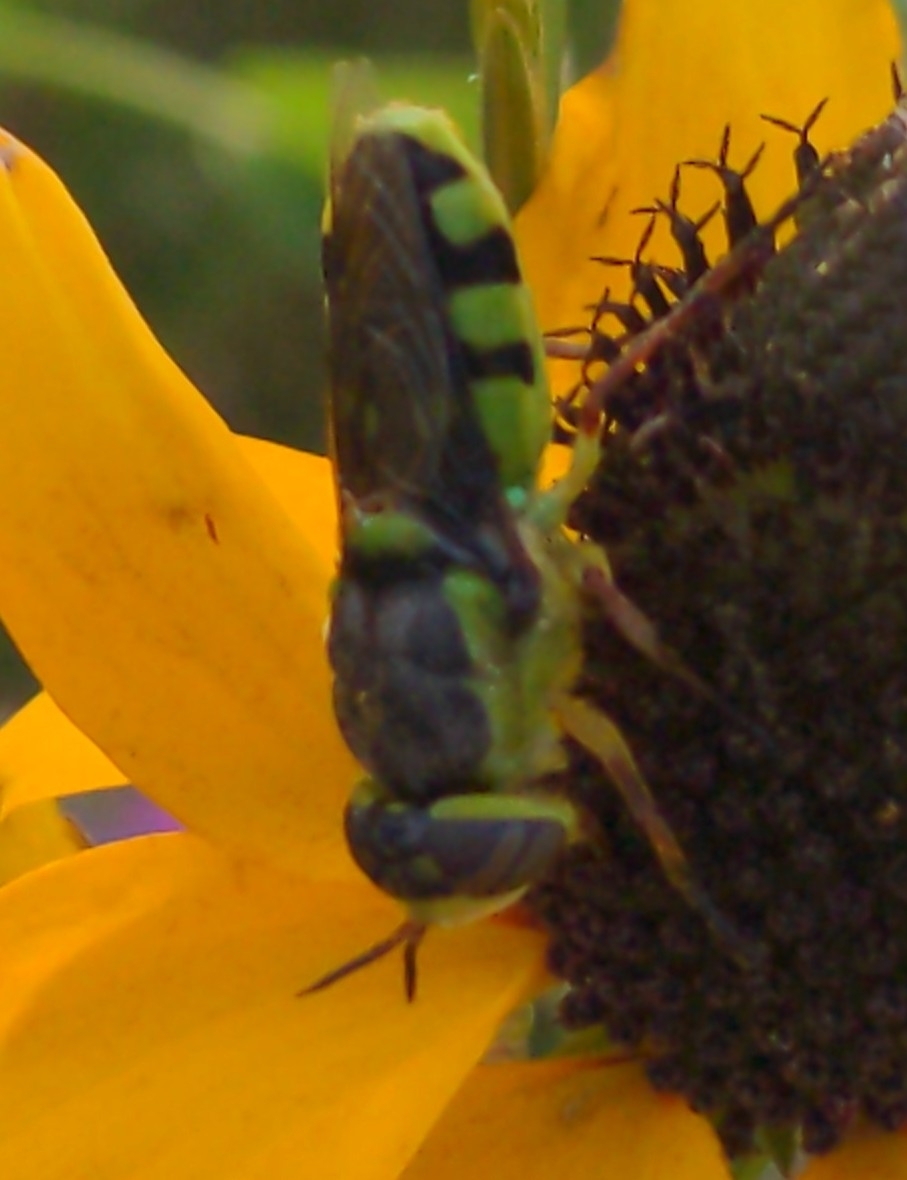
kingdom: Animalia
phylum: Arthropoda
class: Insecta
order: Diptera
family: Stratiomyidae
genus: Hedriodiscus
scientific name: Hedriodiscus truquii
